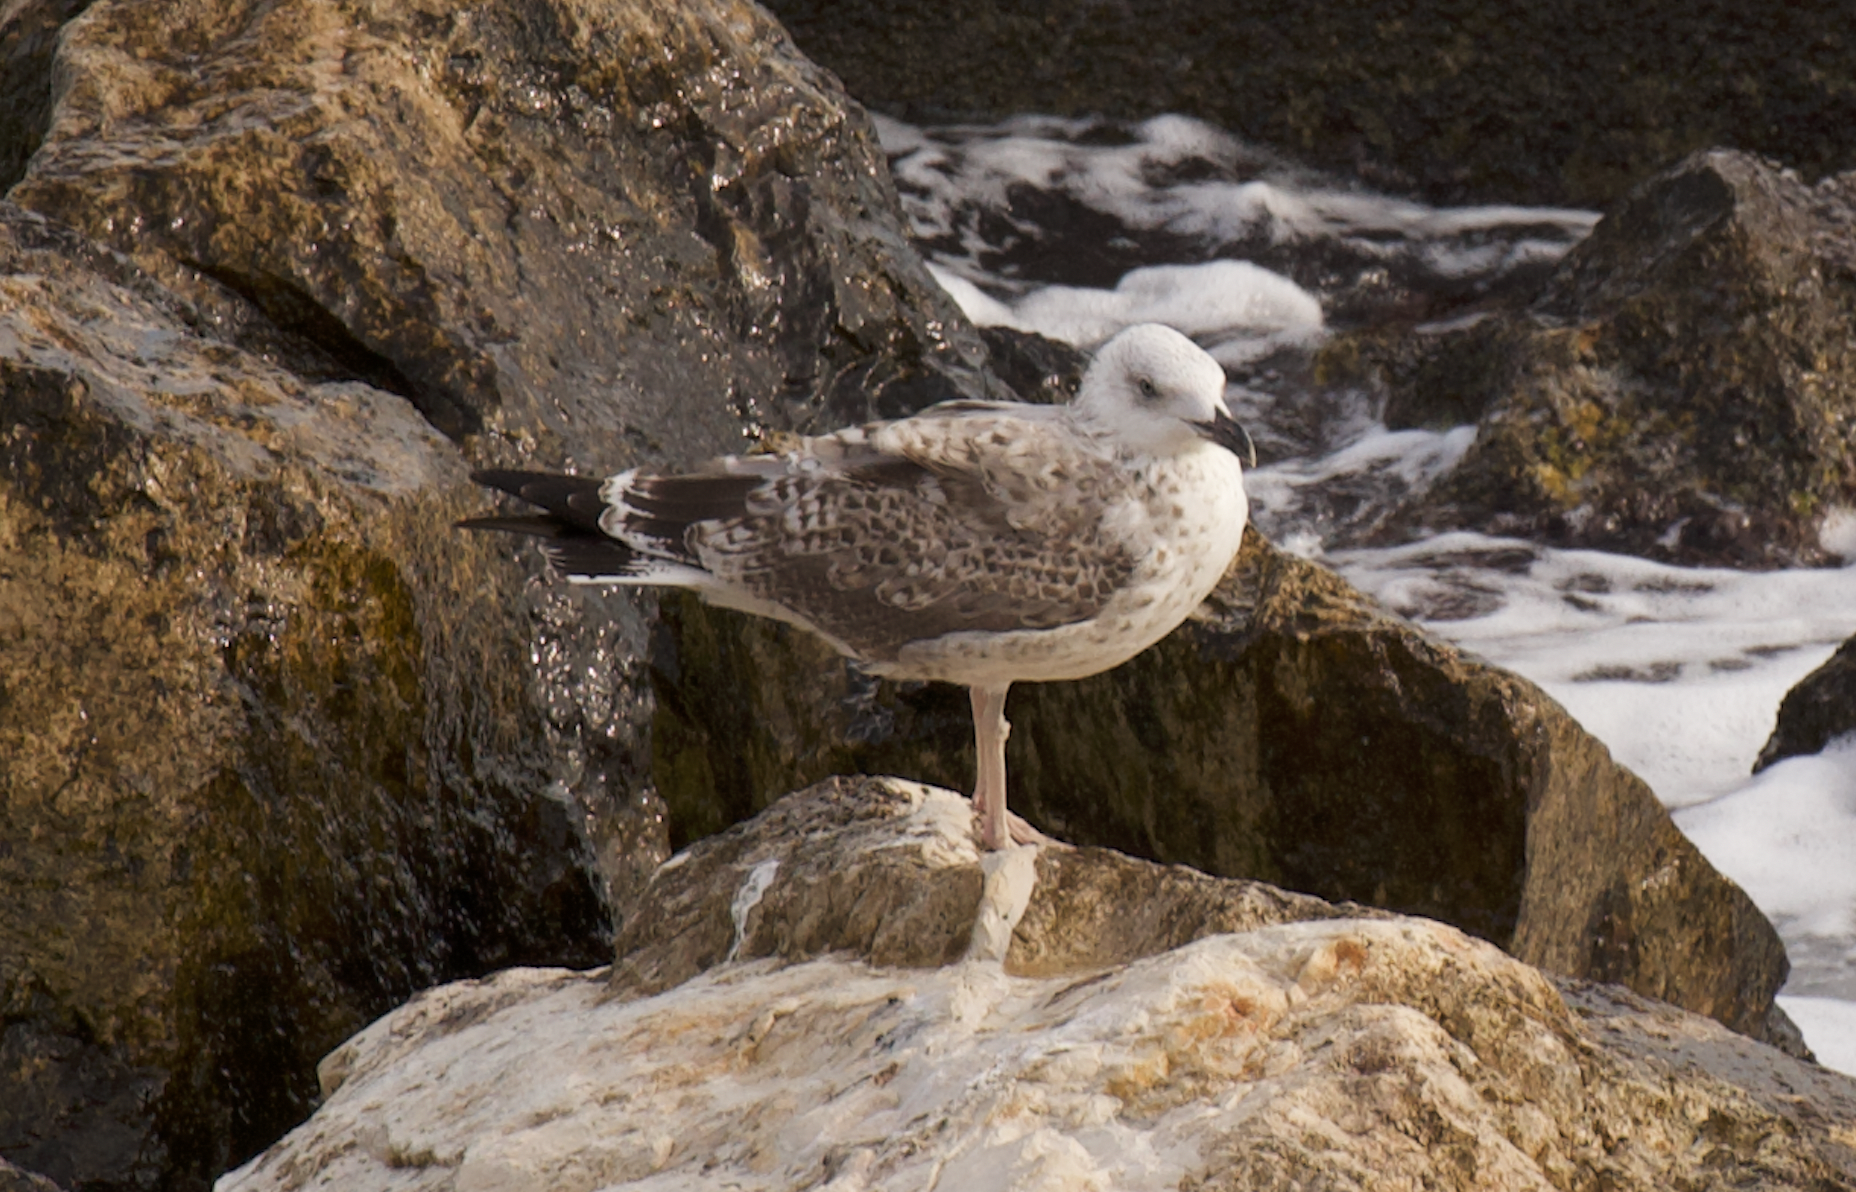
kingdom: Animalia
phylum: Chordata
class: Aves
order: Charadriiformes
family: Laridae
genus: Larus
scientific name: Larus michahellis
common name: Yellow-legged gull
